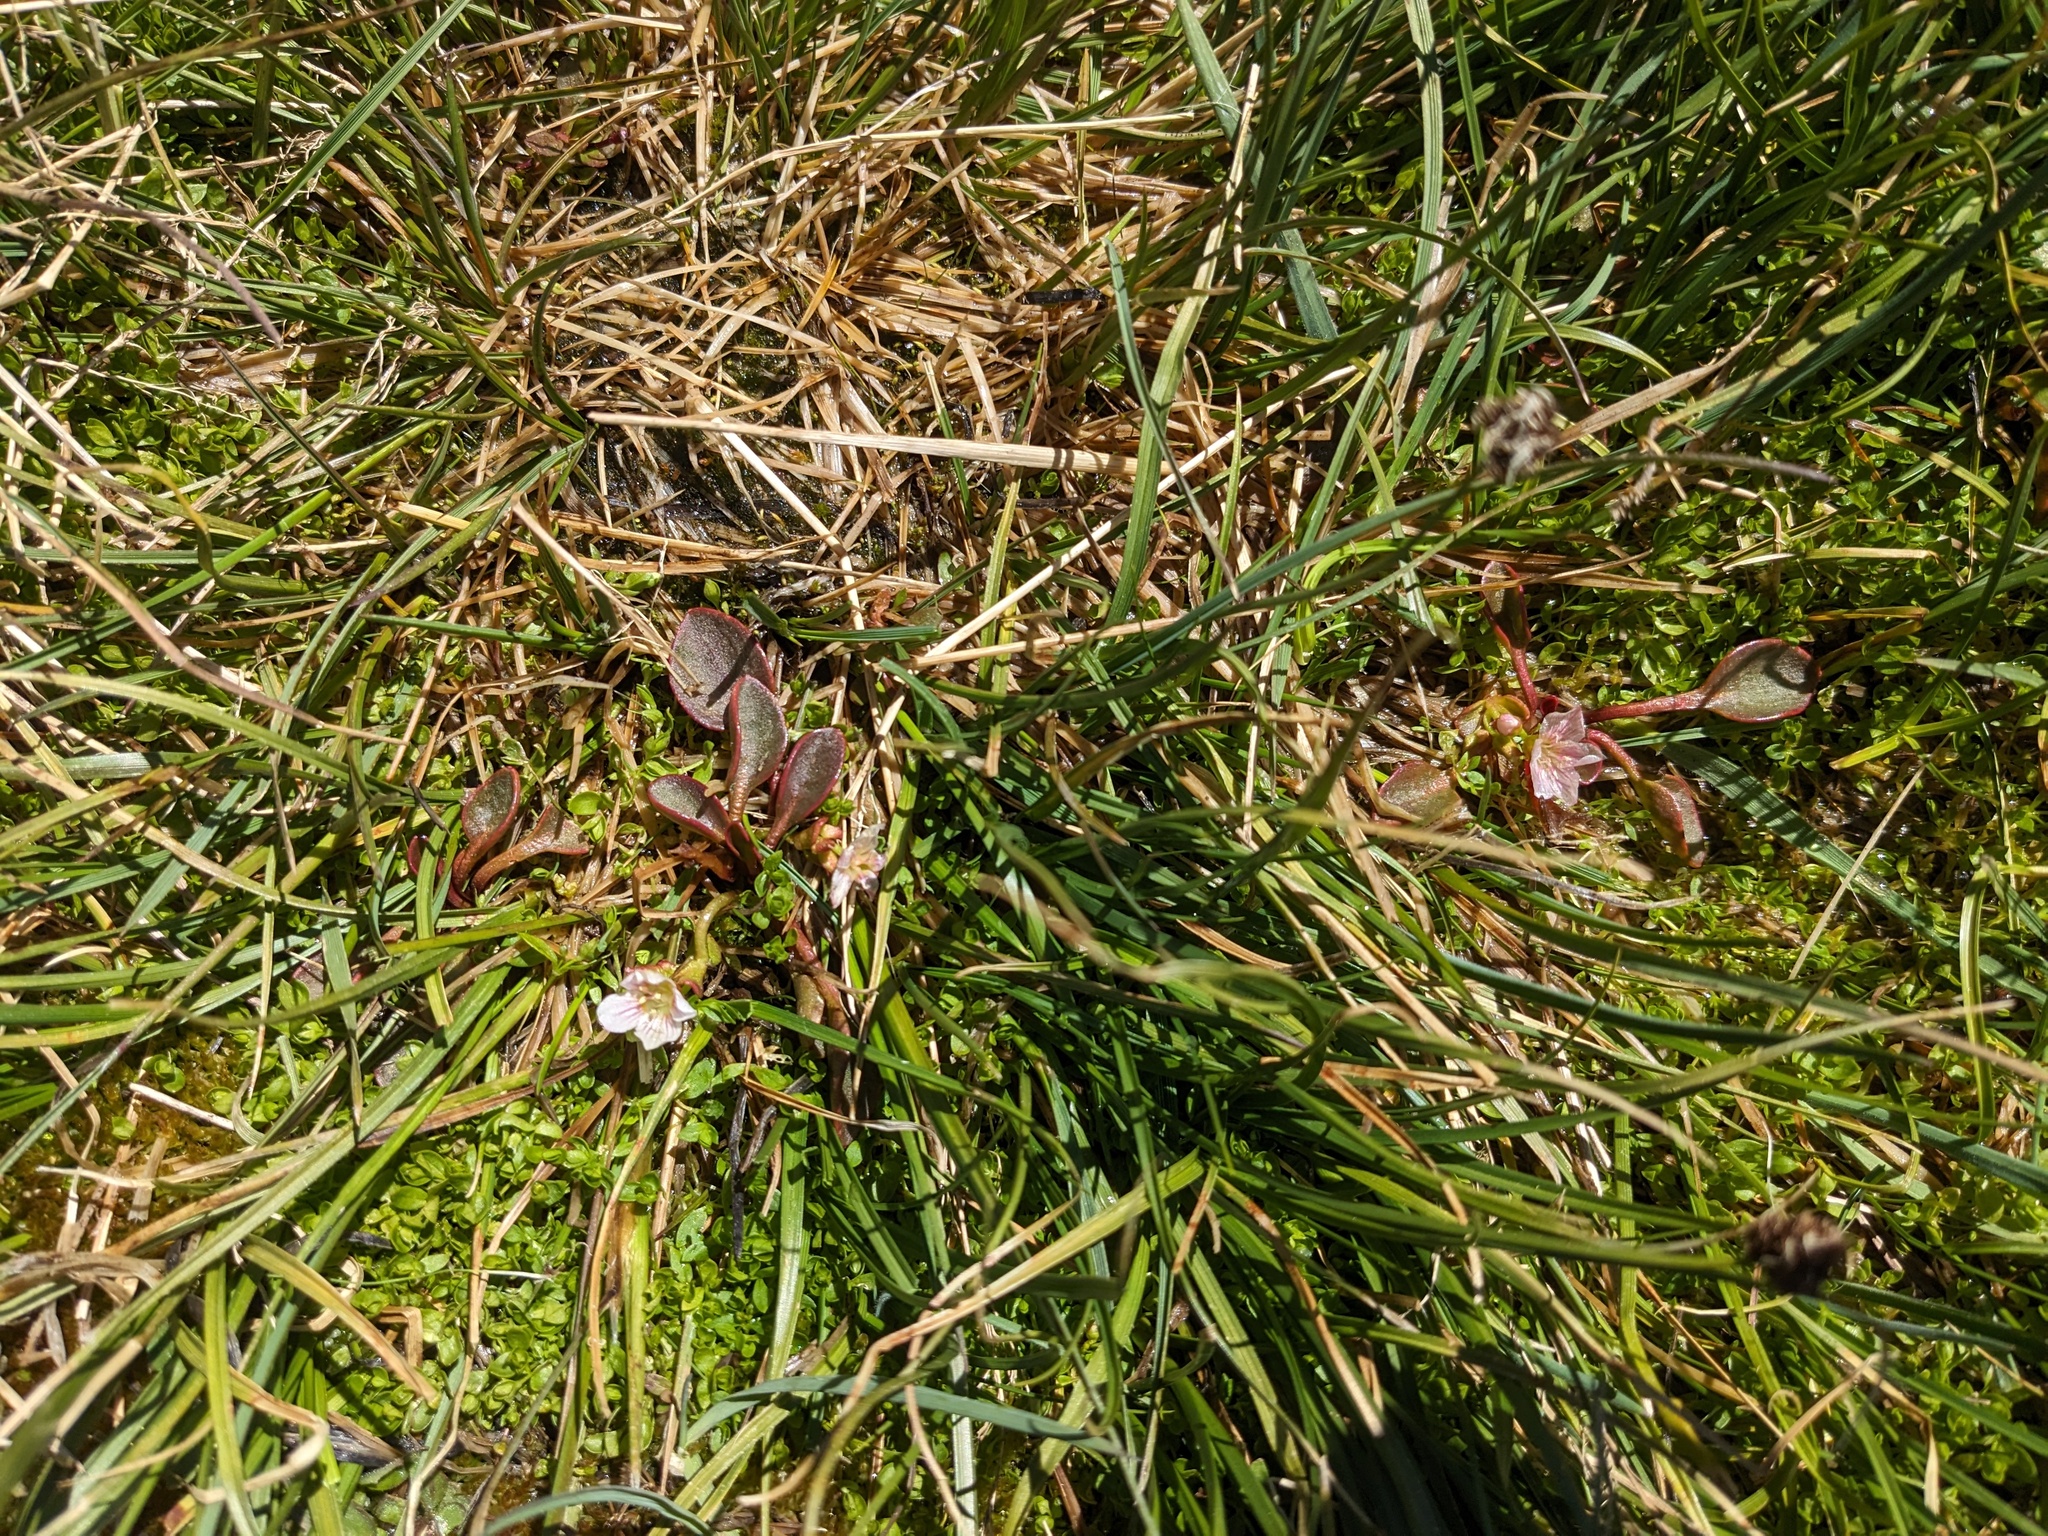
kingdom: Plantae
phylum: Tracheophyta
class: Magnoliopsida
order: Caryophyllales
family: Montiaceae
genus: Claytonia
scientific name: Claytonia nevadensis
